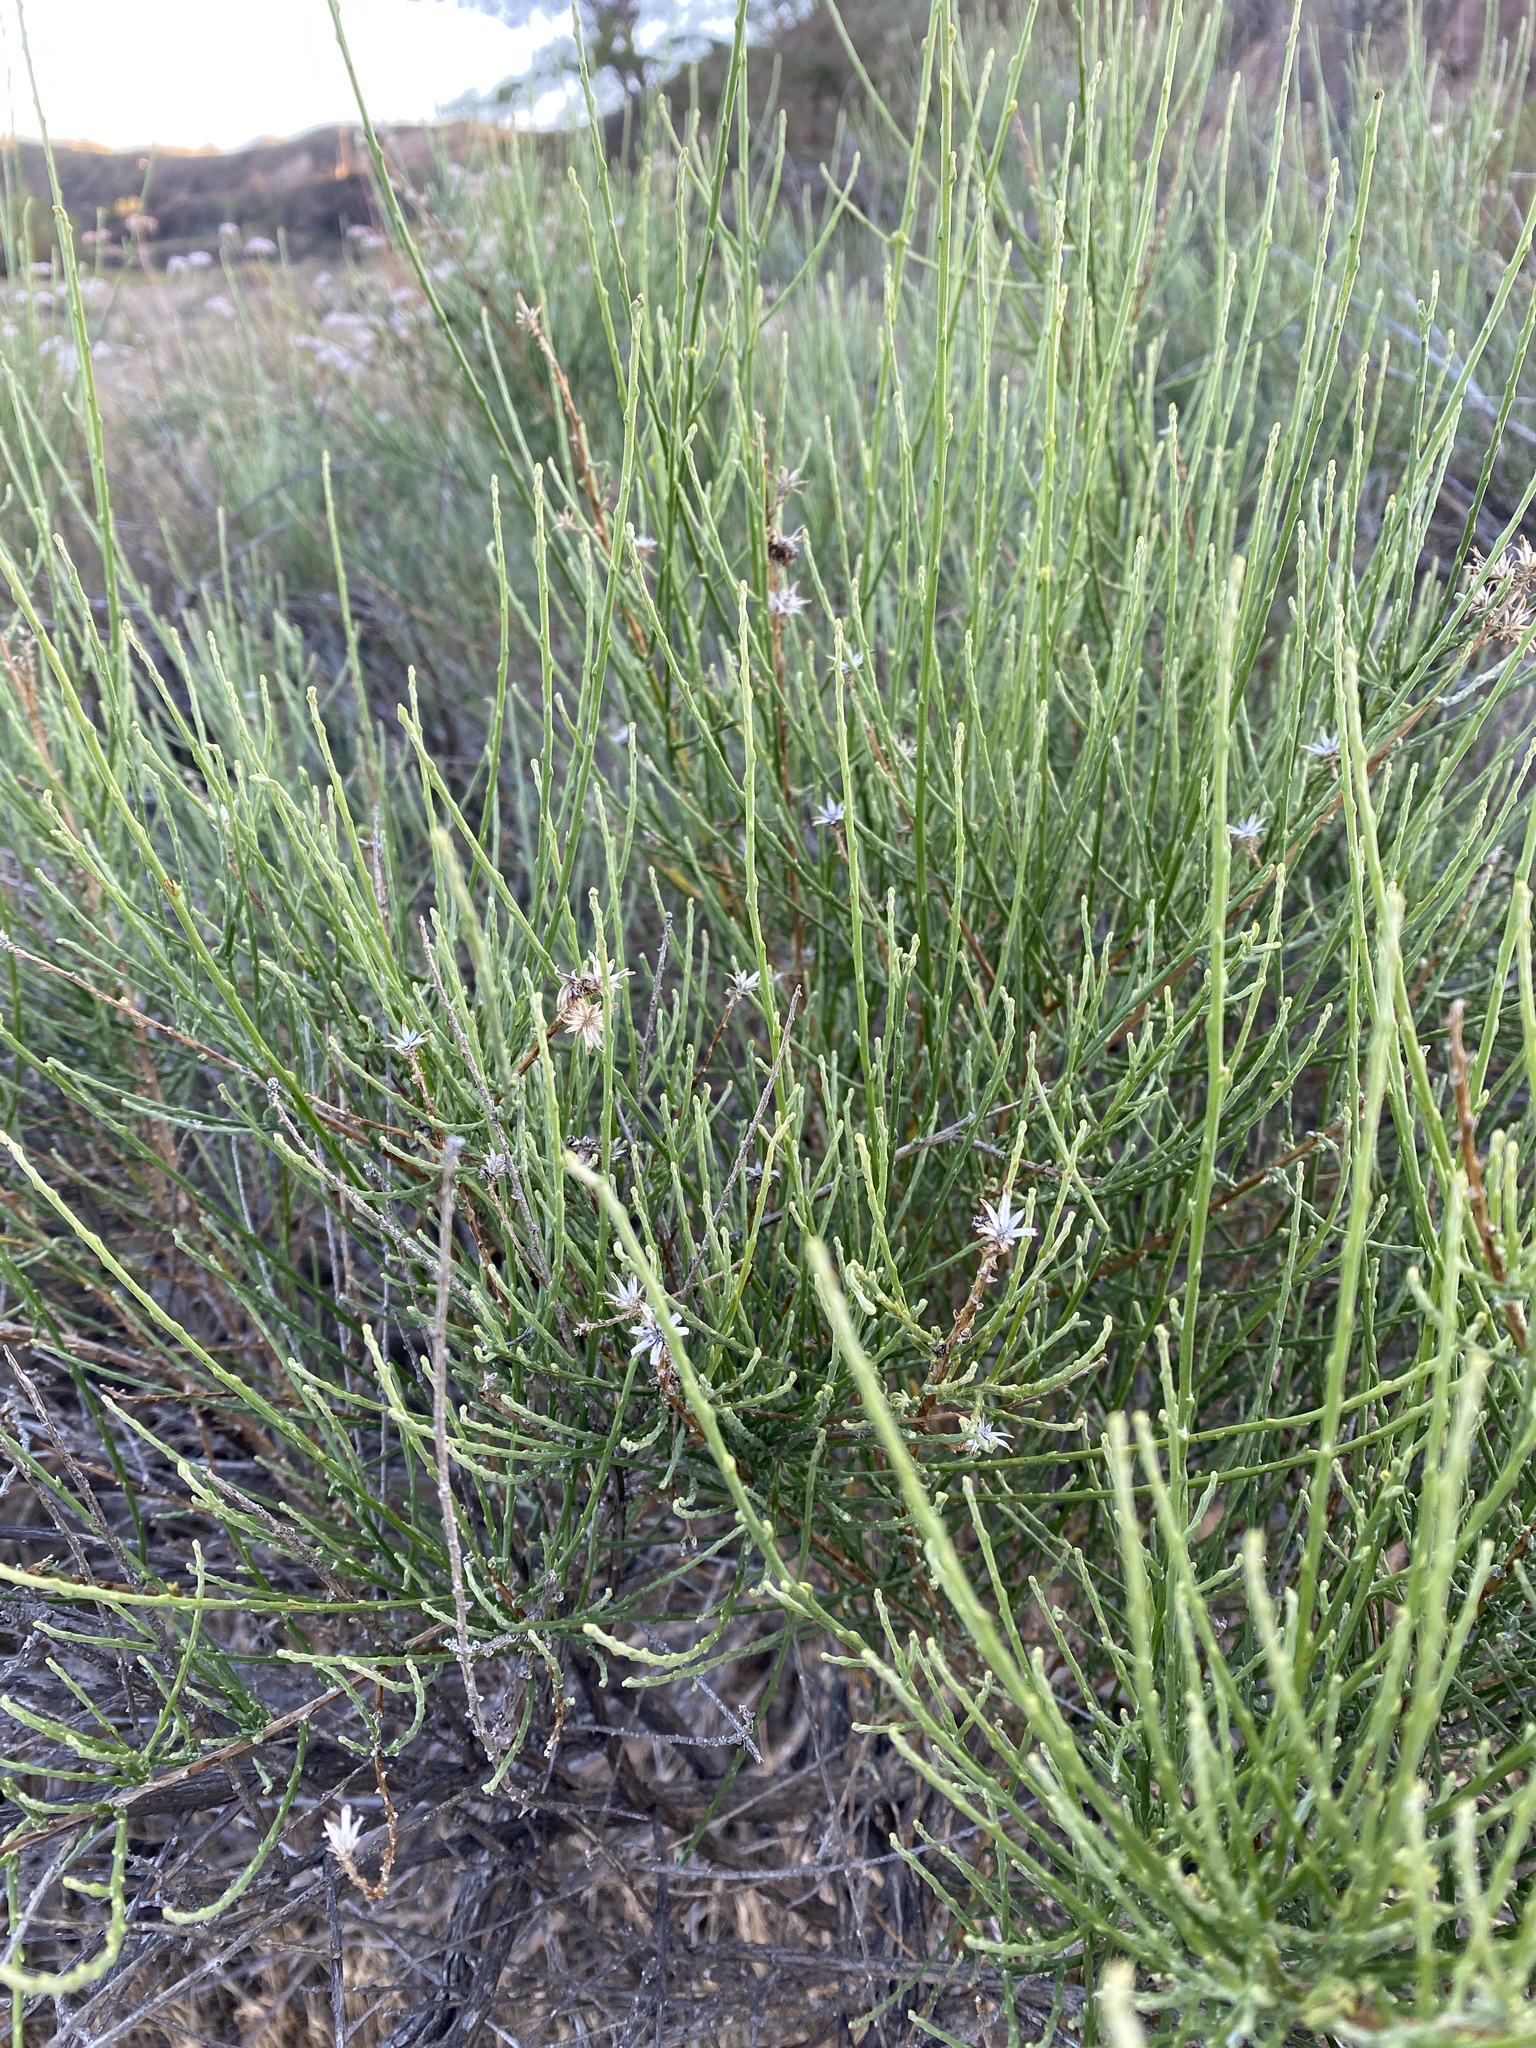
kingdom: Plantae
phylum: Tracheophyta
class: Magnoliopsida
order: Asterales
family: Asteraceae
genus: Lepidospartum
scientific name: Lepidospartum squamatum
